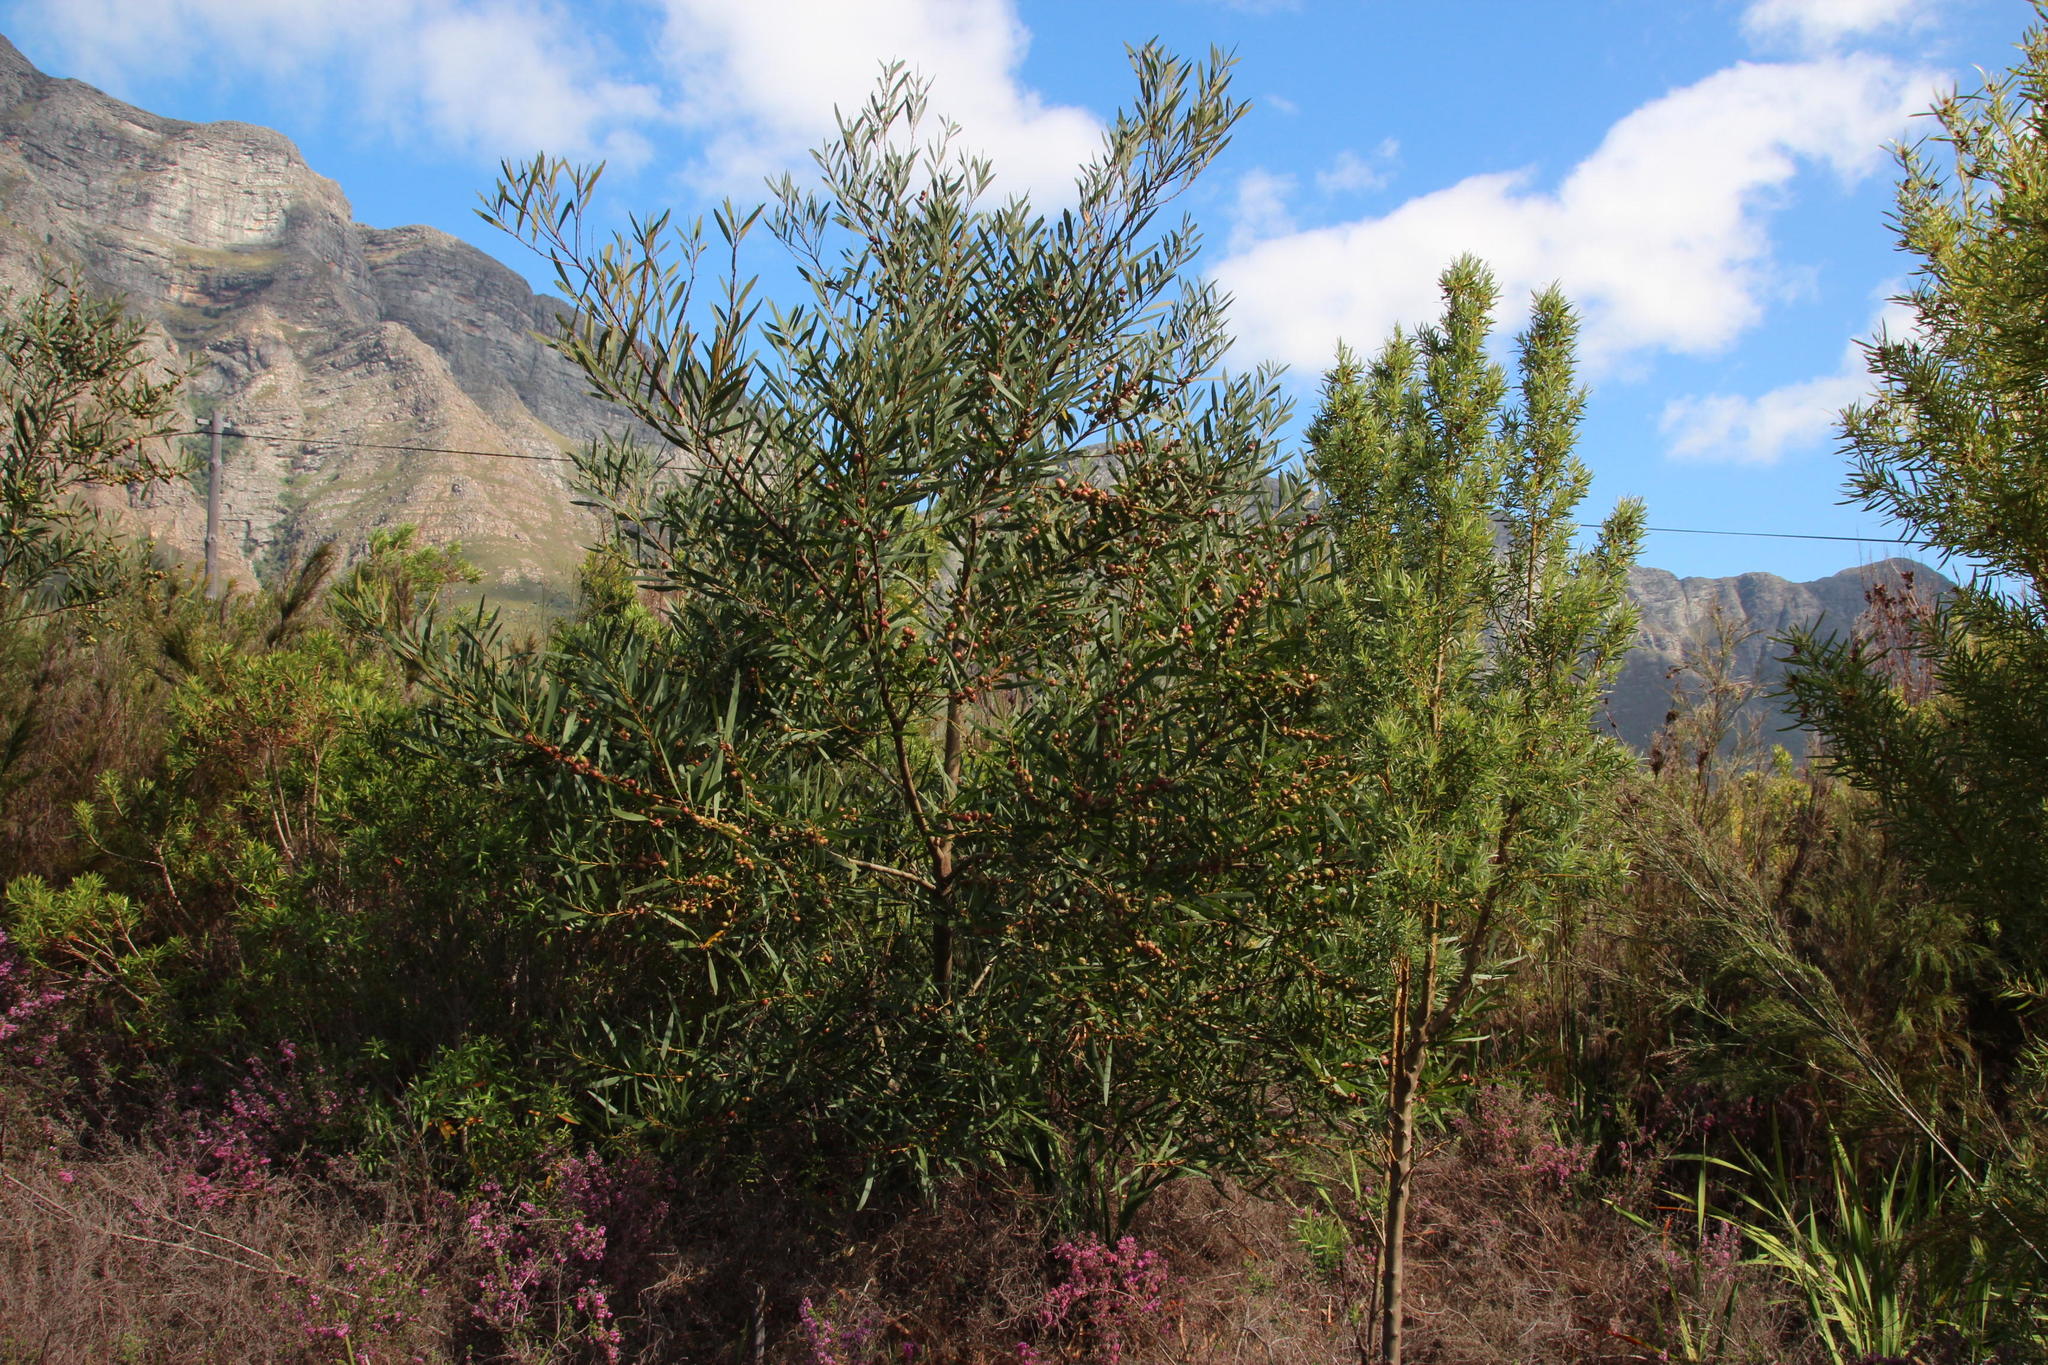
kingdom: Plantae
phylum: Tracheophyta
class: Magnoliopsida
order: Fabales
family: Fabaceae
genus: Acacia
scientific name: Acacia longifolia
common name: Sydney golden wattle
